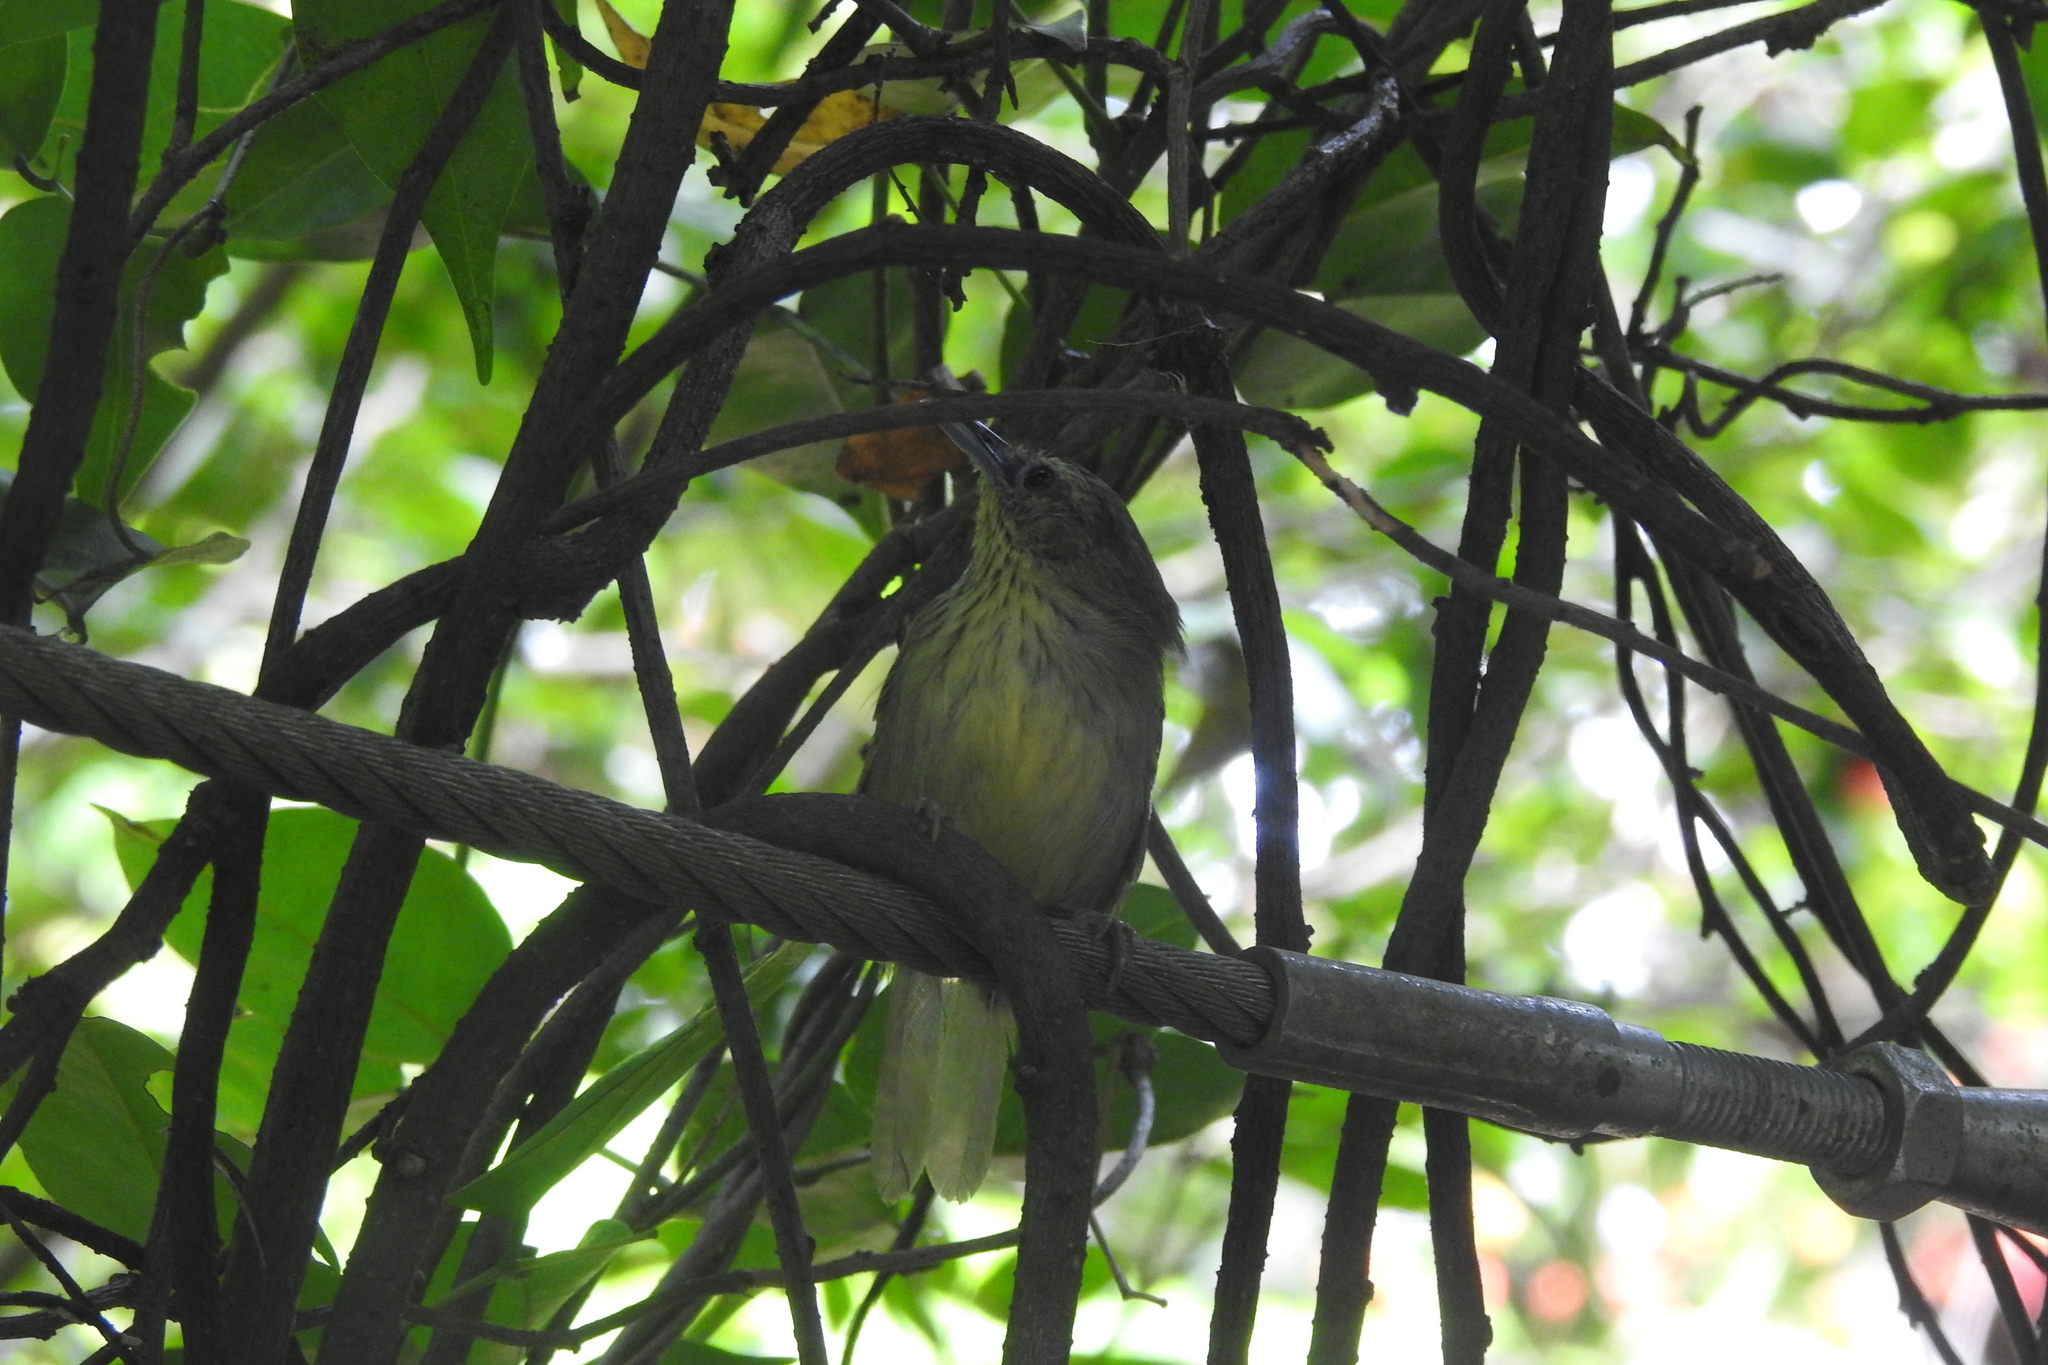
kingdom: Animalia
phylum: Chordata
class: Aves
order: Passeriformes
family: Timaliidae
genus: Macronus
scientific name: Macronus gularis
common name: Striped tit-babbler
